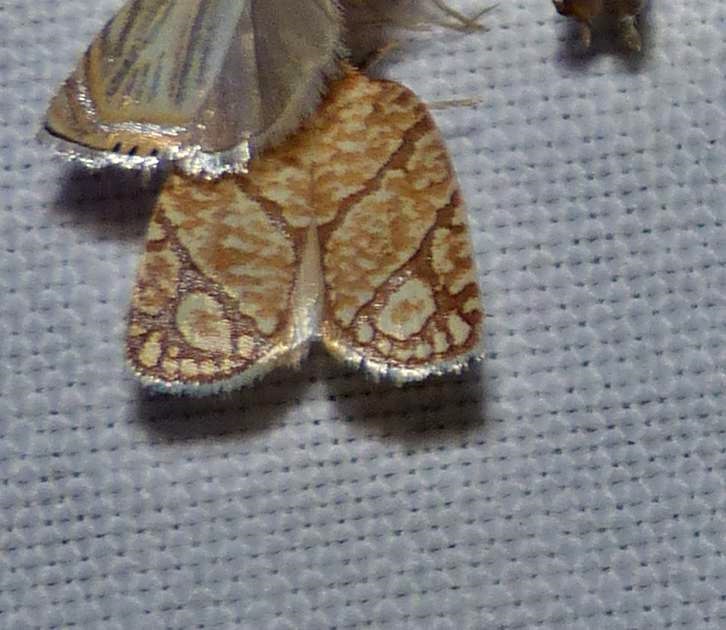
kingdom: Animalia
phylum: Arthropoda
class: Insecta
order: Lepidoptera
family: Tortricidae
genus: Argyrotaenia
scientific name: Argyrotaenia quercifoliana
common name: Yellow-winged oak leafroller moth
